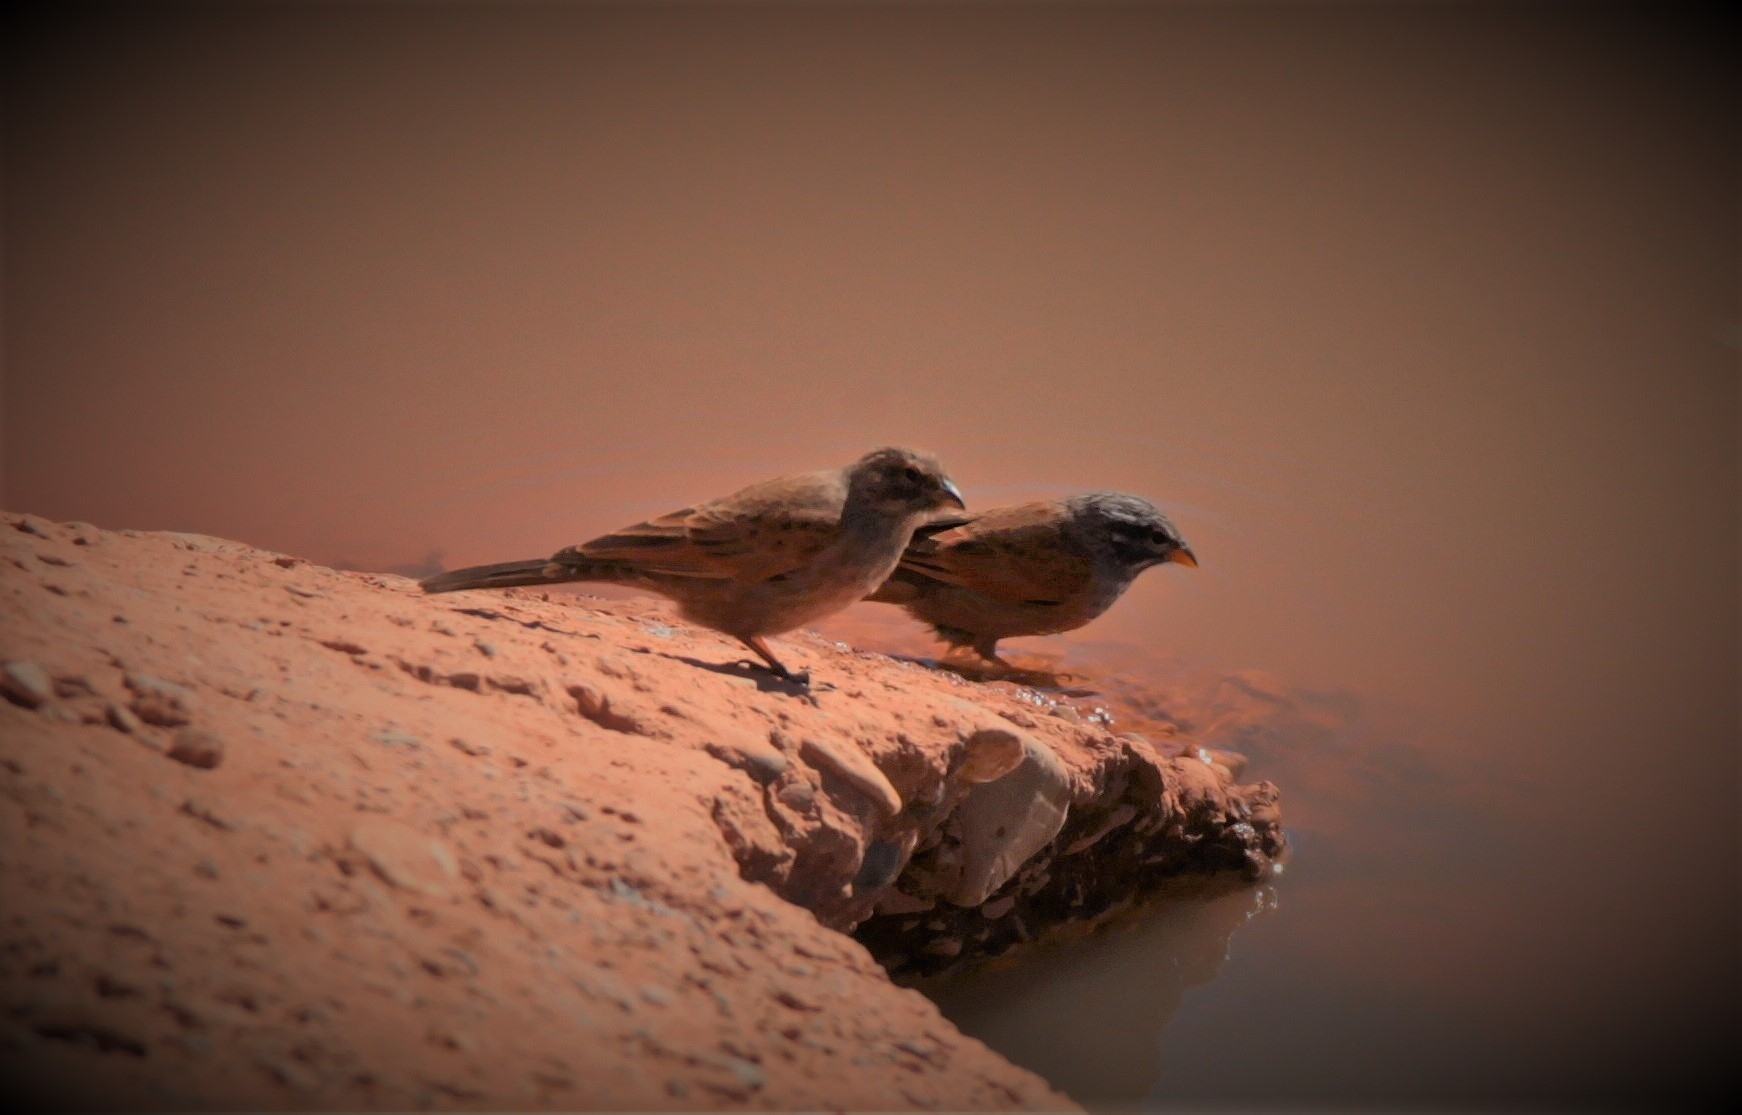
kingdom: Animalia
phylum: Chordata
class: Aves
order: Passeriformes
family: Emberizidae
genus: Emberiza
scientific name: Emberiza sahari
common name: House bunting
